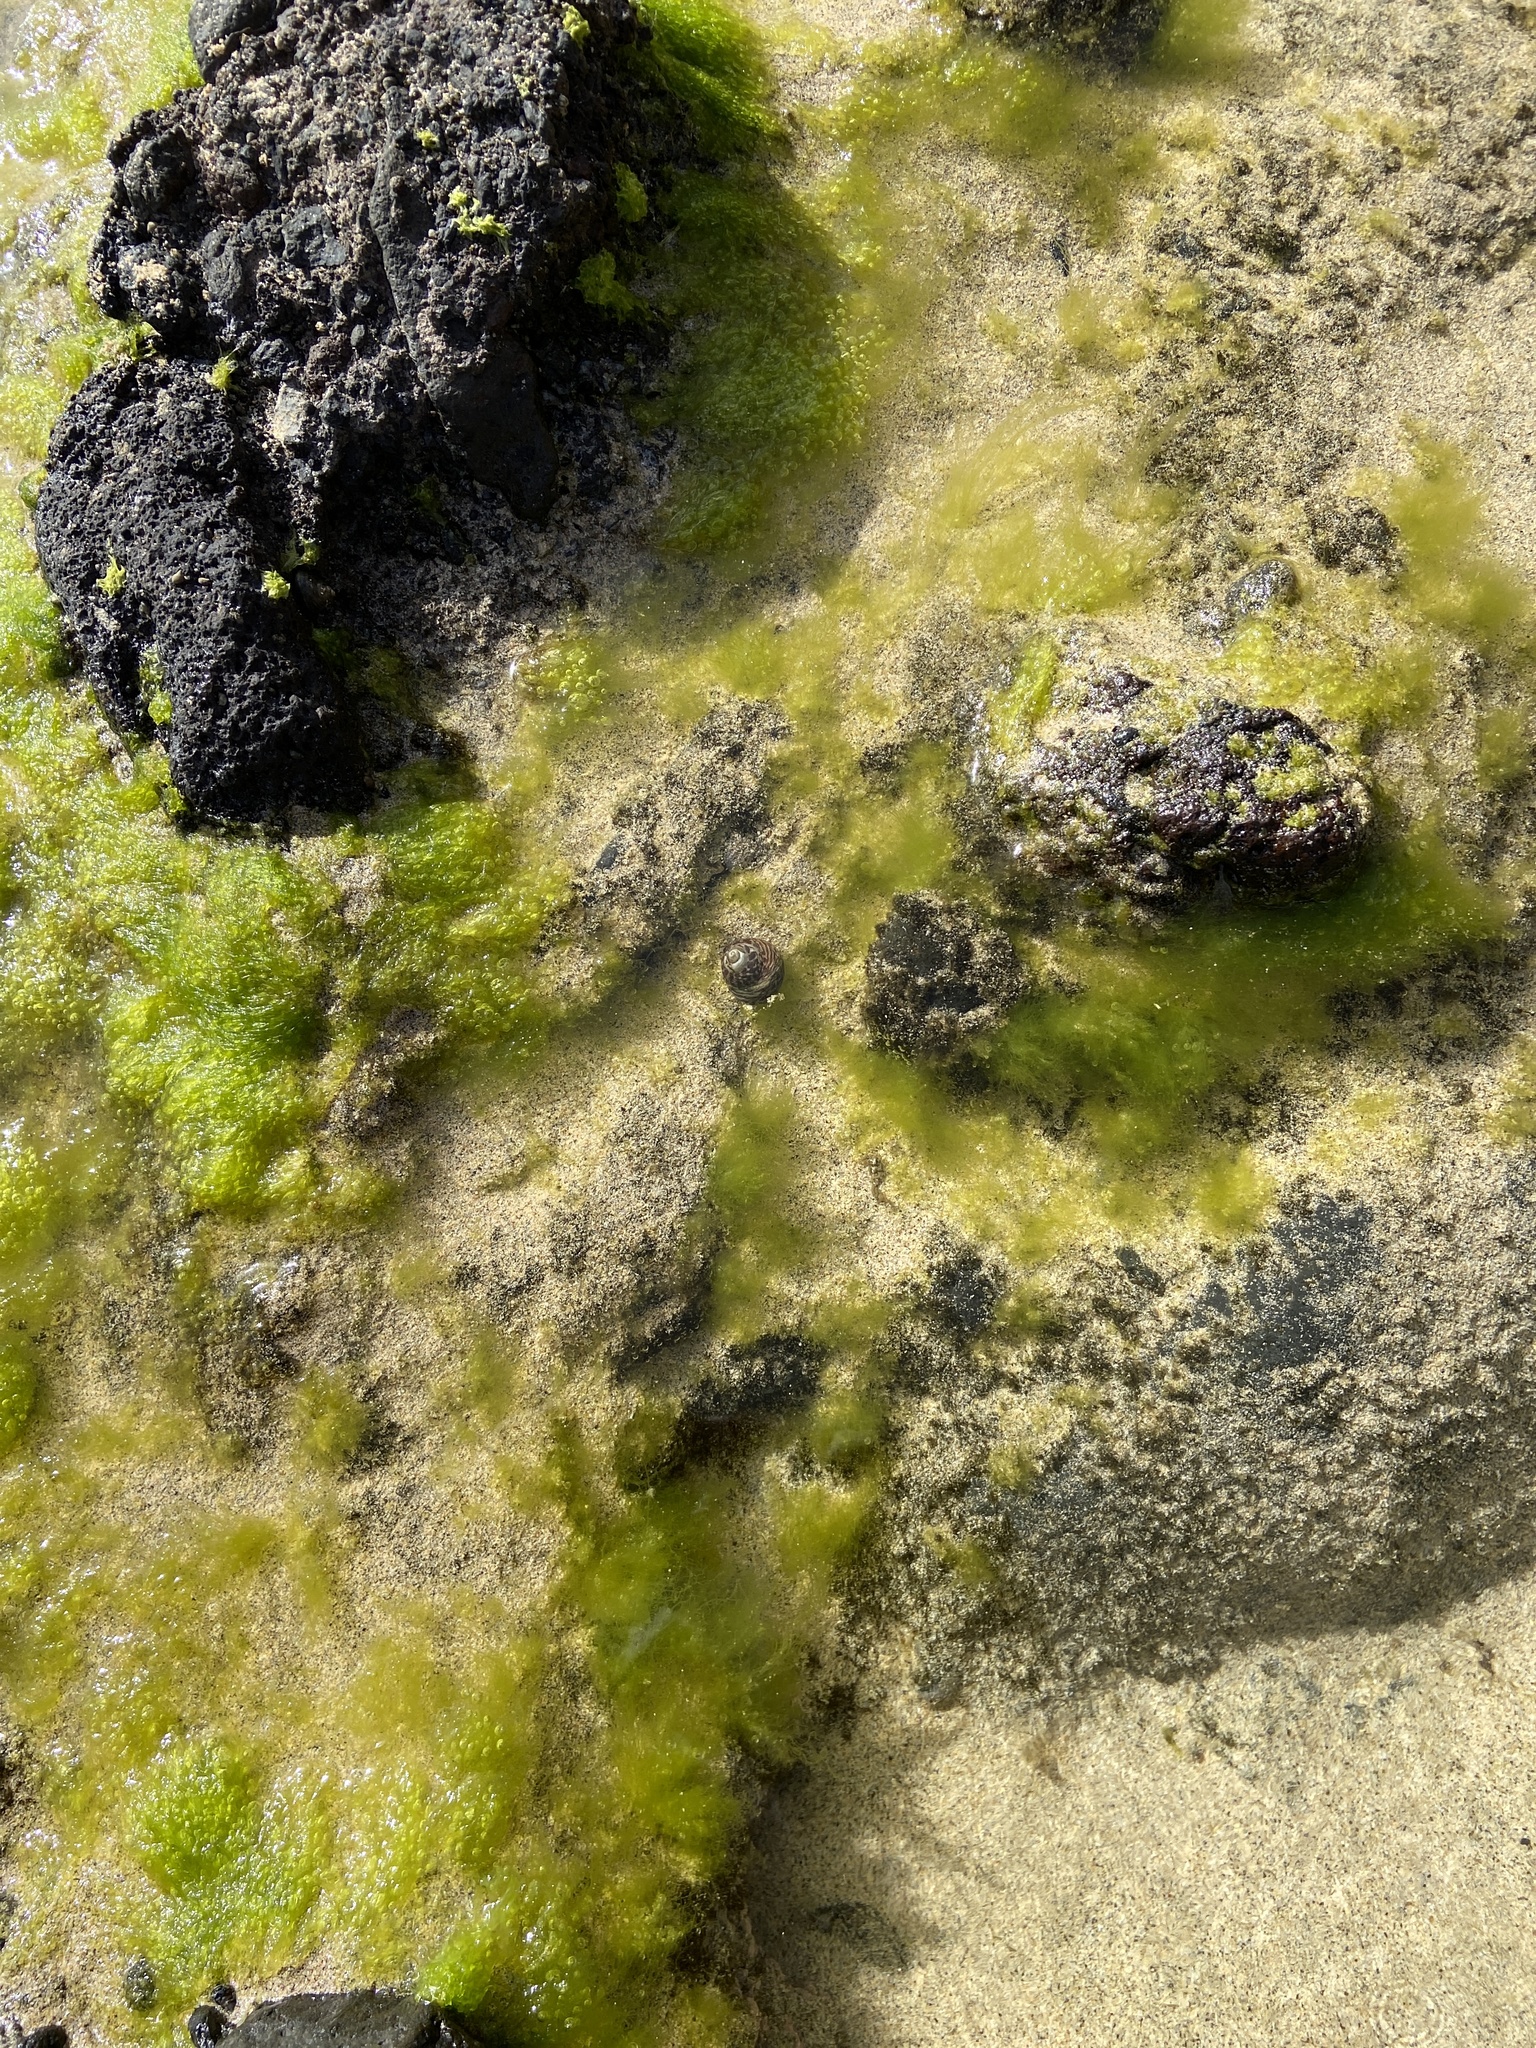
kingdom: Animalia
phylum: Mollusca
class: Gastropoda
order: Trochida
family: Trochidae
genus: Phorcus
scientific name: Phorcus sauciatus
